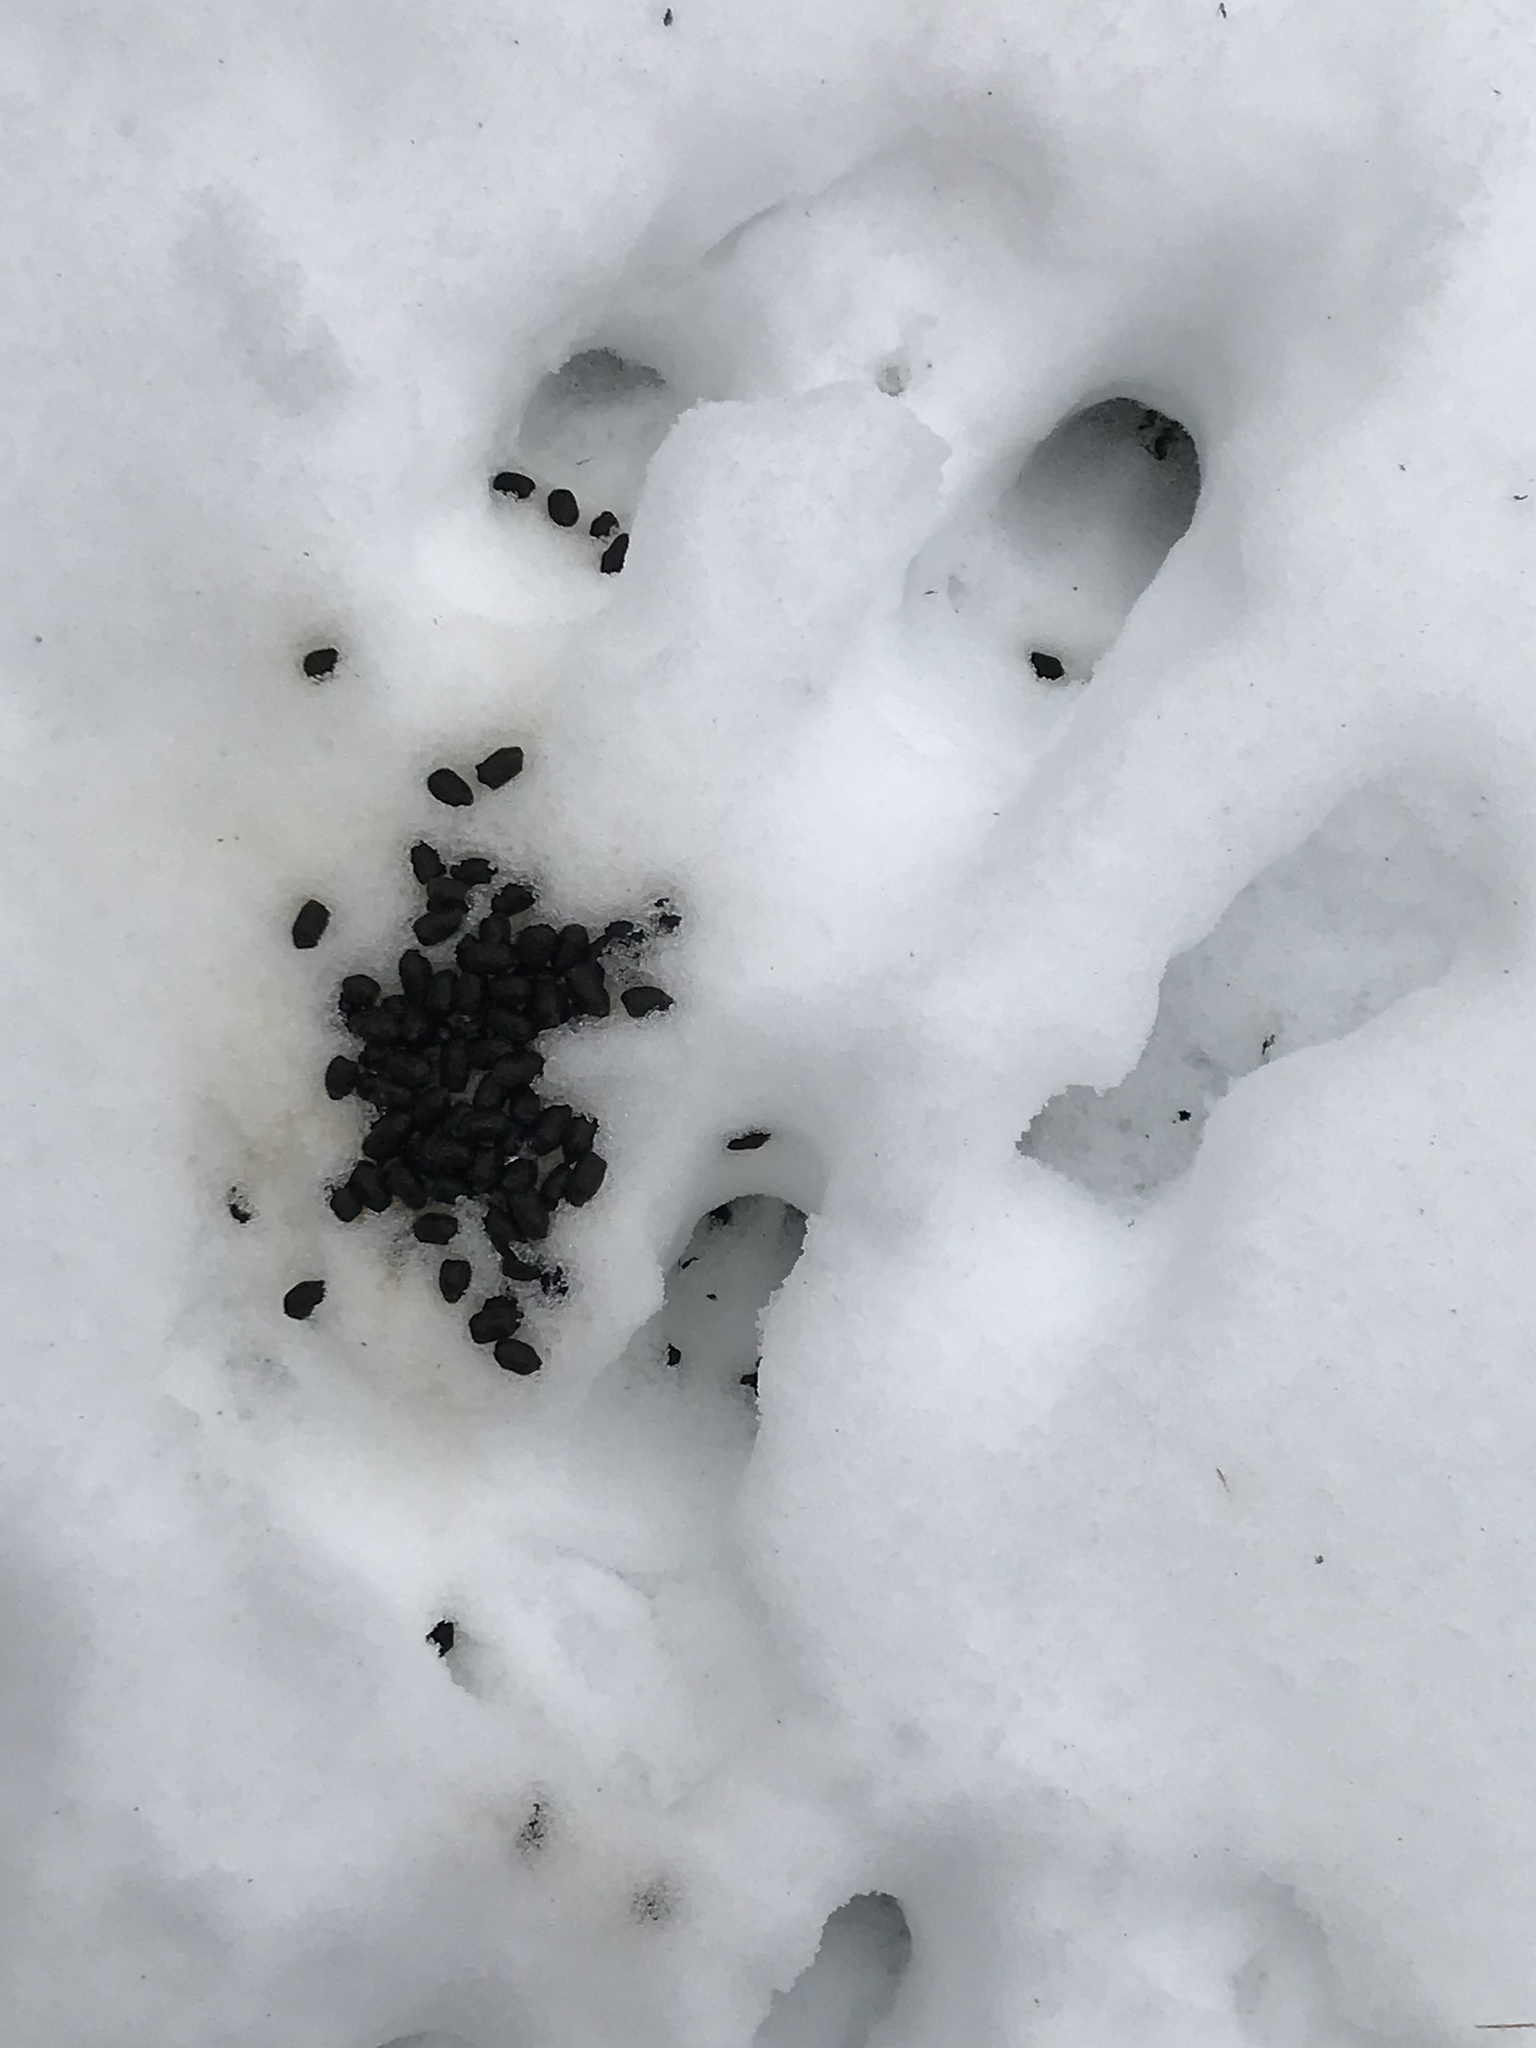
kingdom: Animalia
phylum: Chordata
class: Mammalia
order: Artiodactyla
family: Cervidae
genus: Odocoileus
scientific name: Odocoileus virginianus
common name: White-tailed deer
